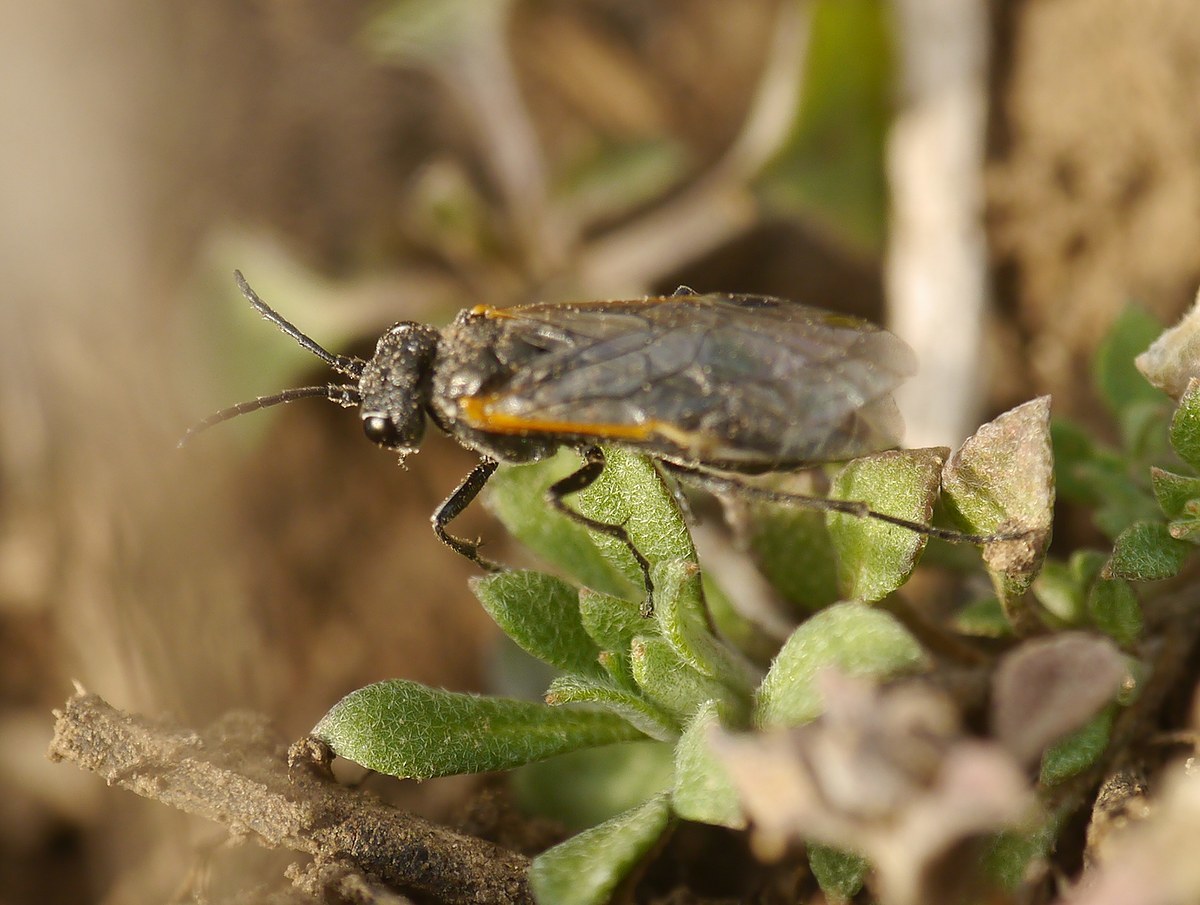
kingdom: Animalia
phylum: Arthropoda
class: Insecta
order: Hymenoptera
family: Tenthredinidae
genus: Sciapteryx
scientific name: Sciapteryx costalis
